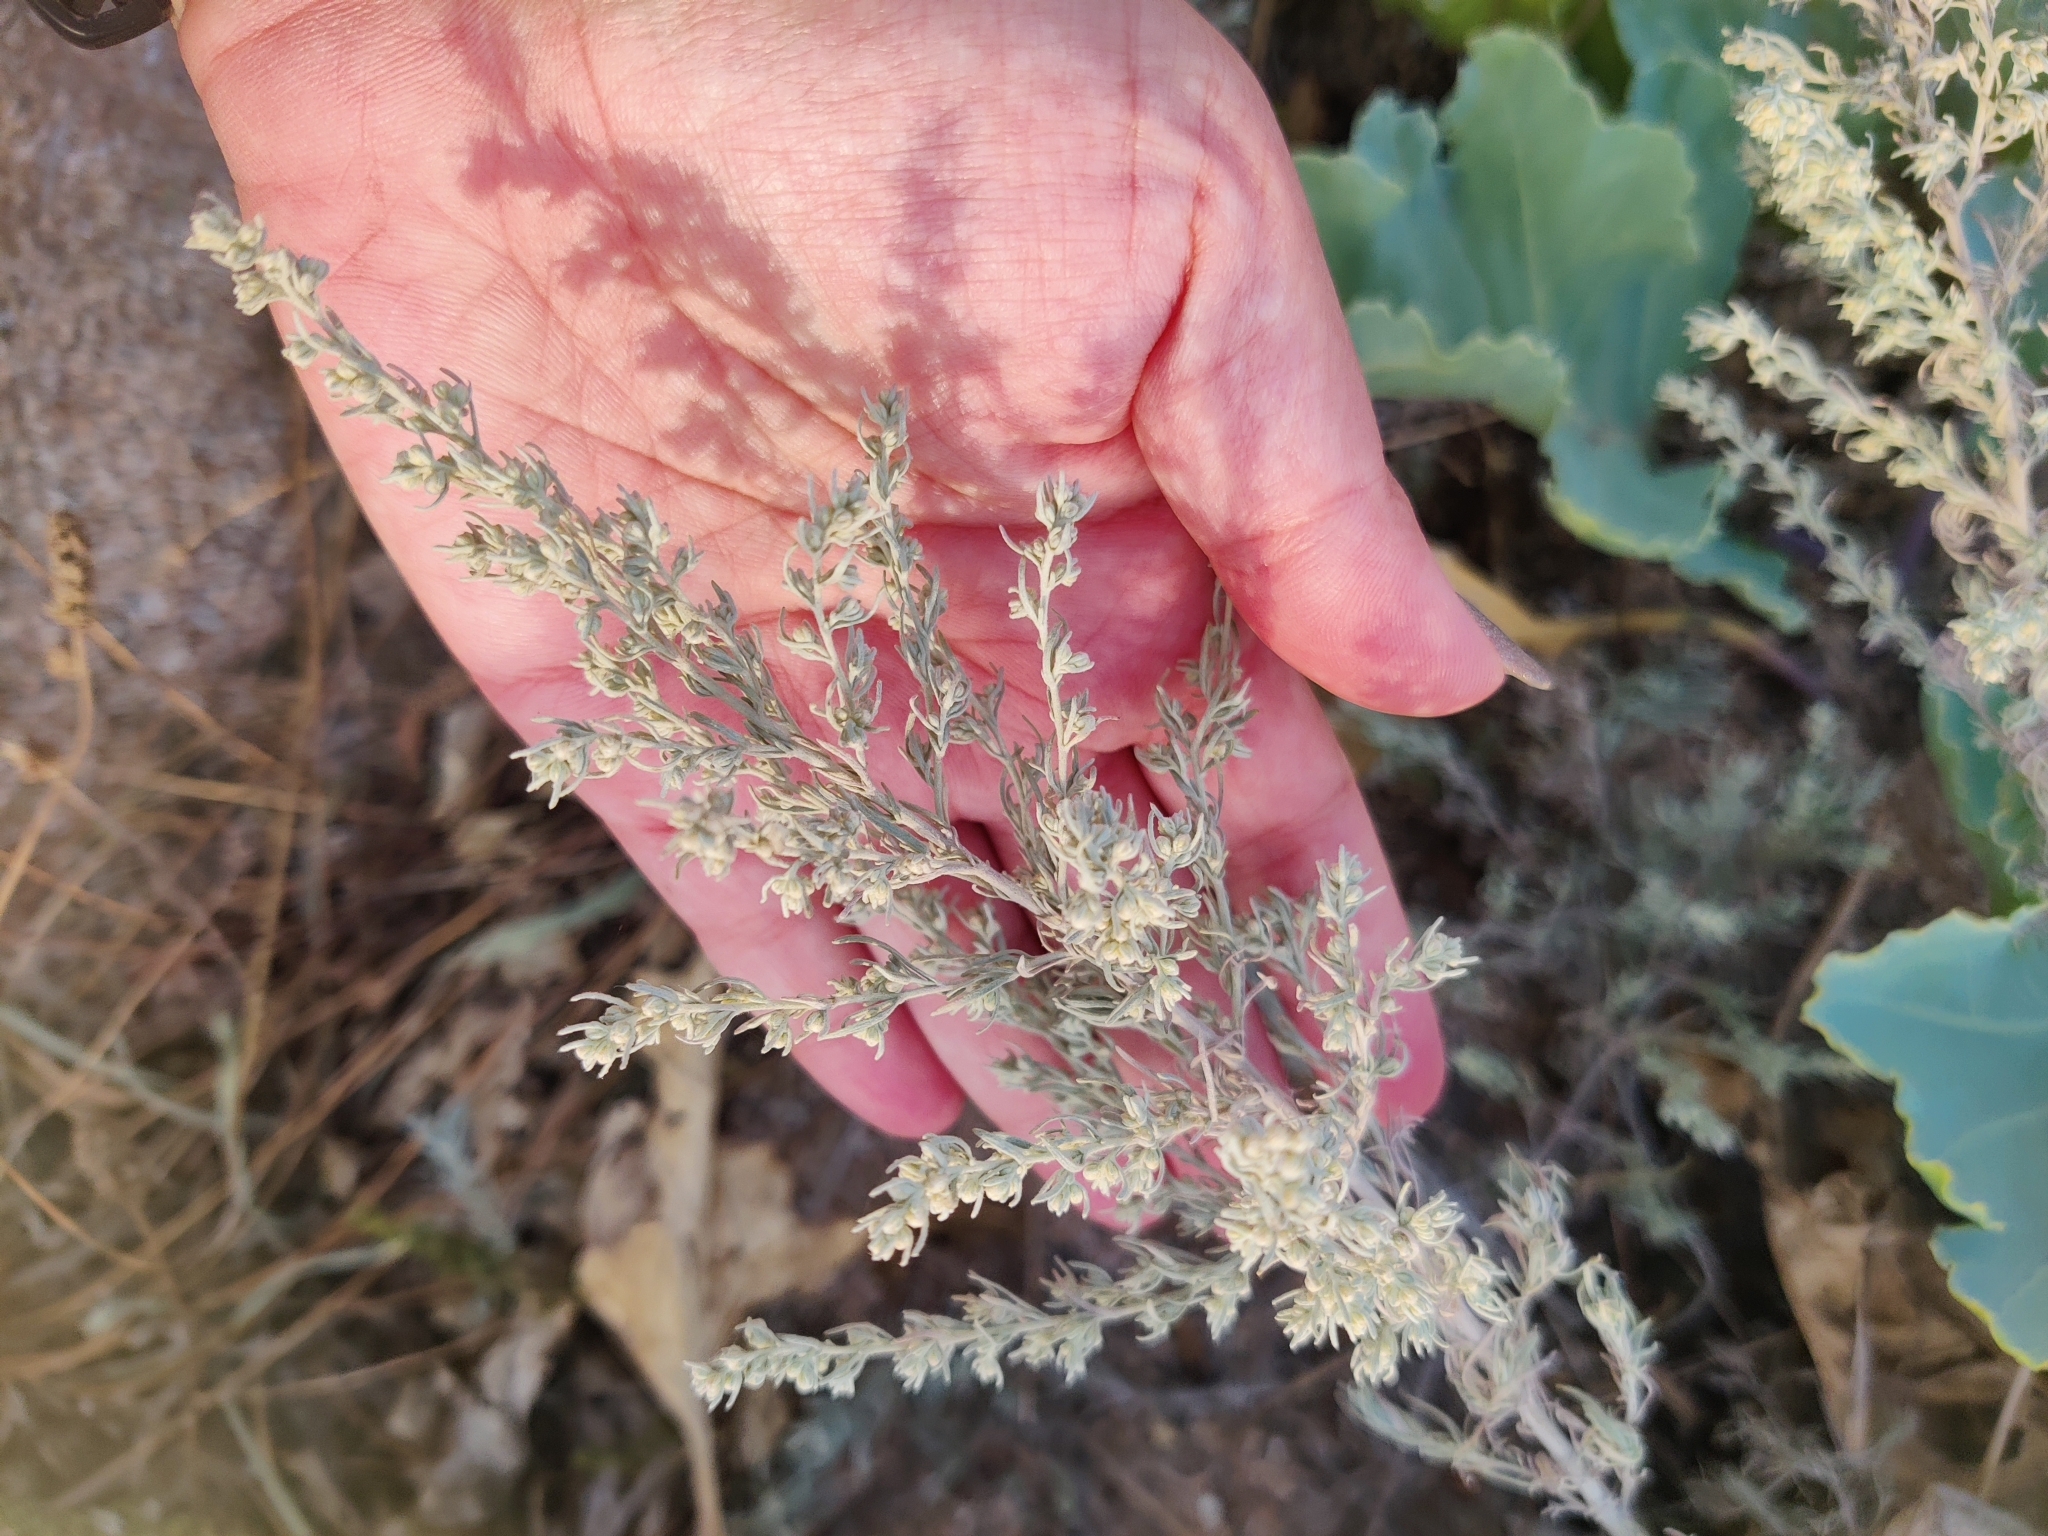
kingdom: Plantae
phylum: Tracheophyta
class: Magnoliopsida
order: Asterales
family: Asteraceae
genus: Artemisia
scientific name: Artemisia austriaca
